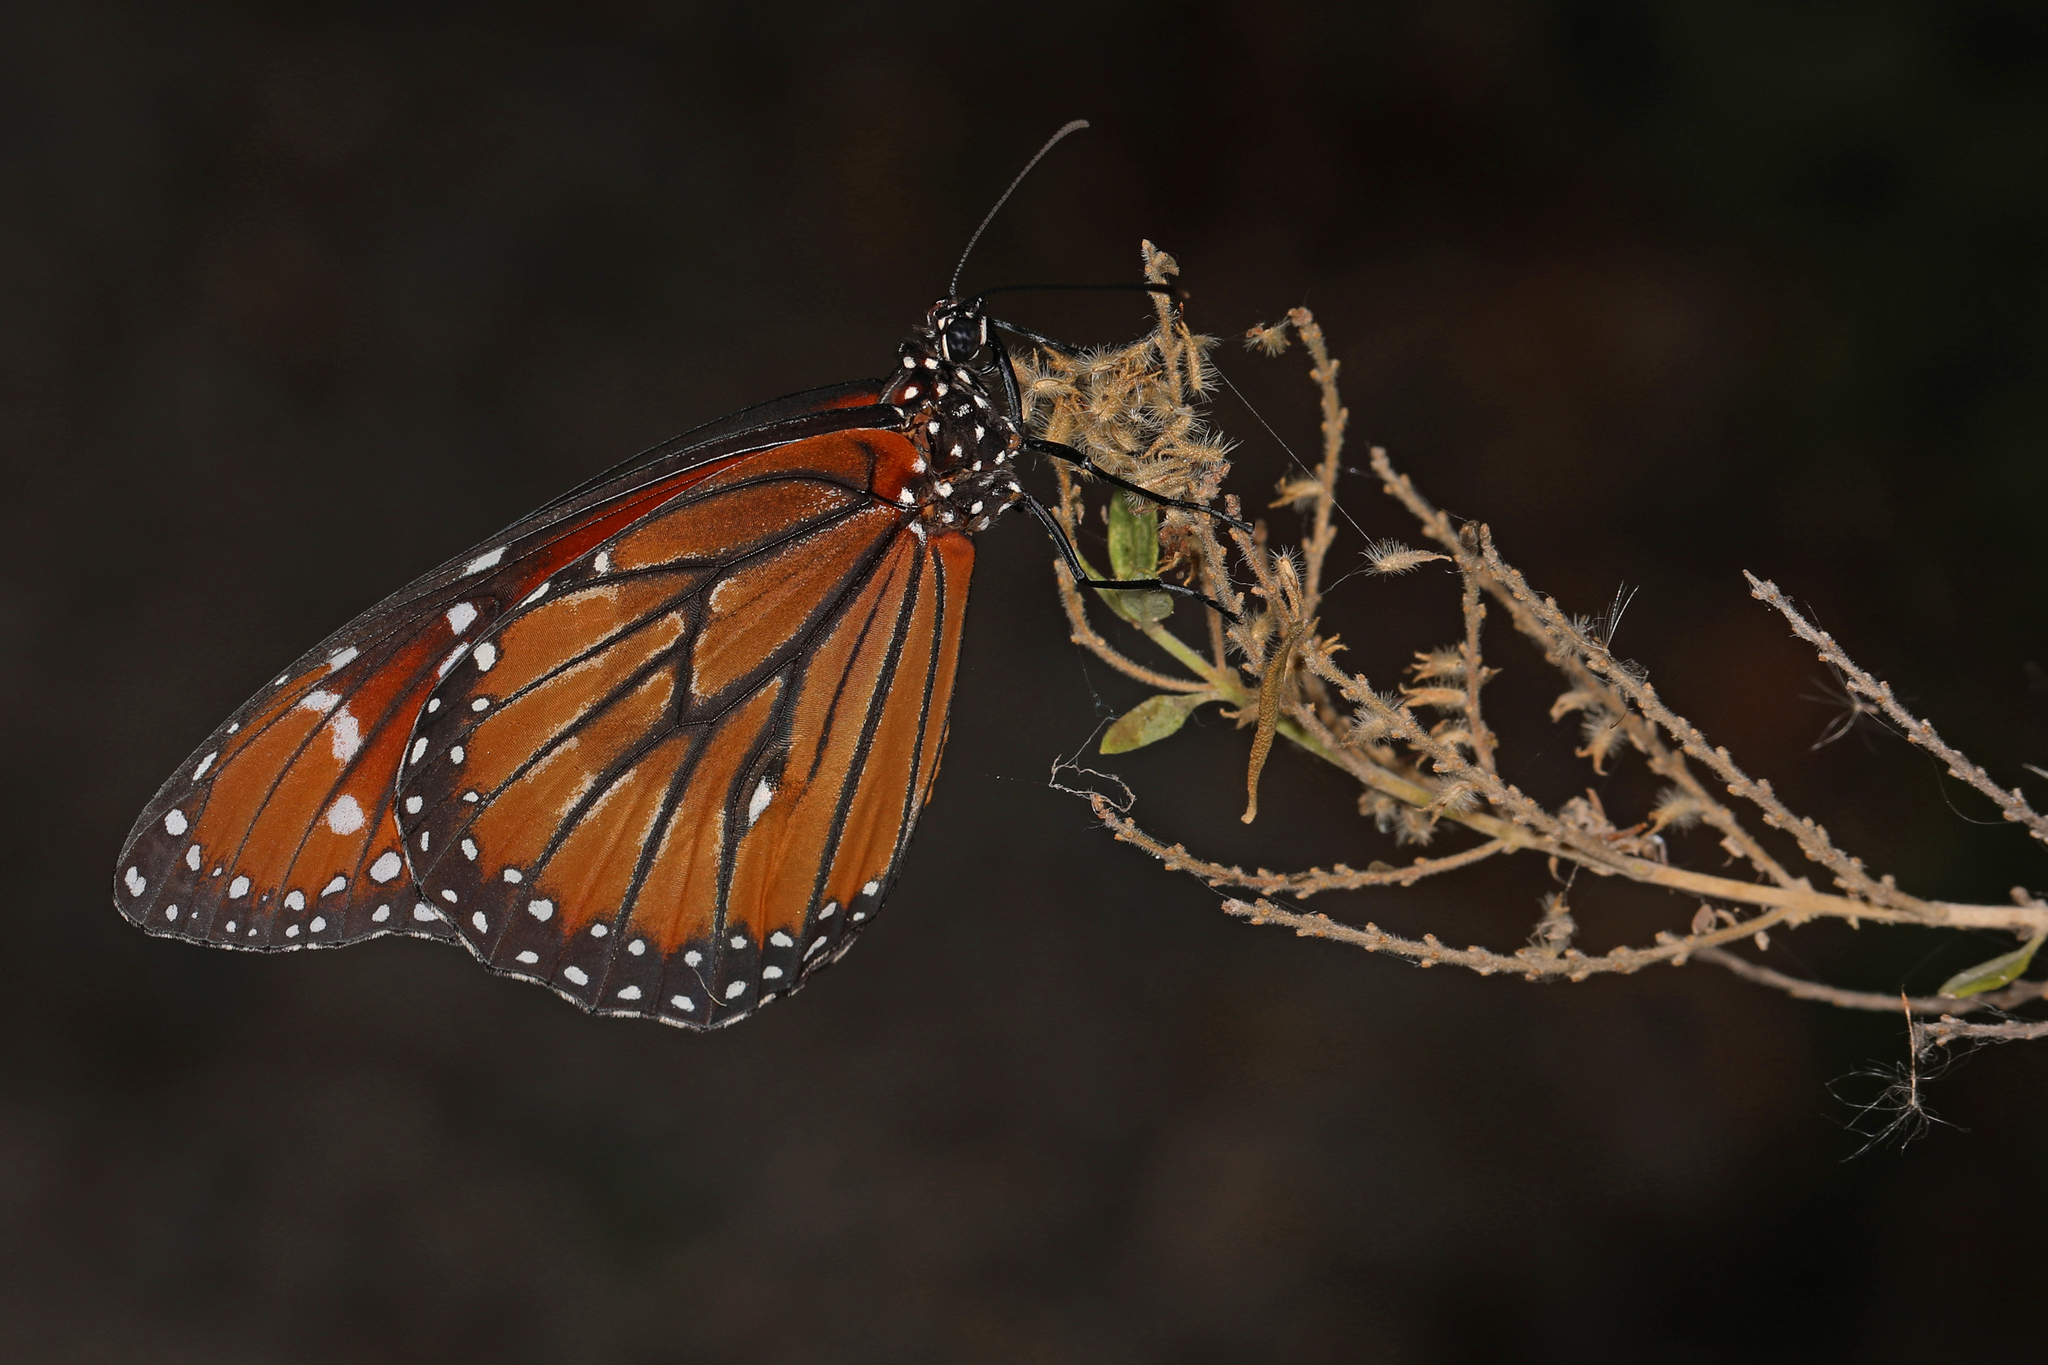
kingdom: Animalia
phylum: Arthropoda
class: Insecta
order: Lepidoptera
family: Nymphalidae
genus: Danaus
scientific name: Danaus eresimus
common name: Soldier
